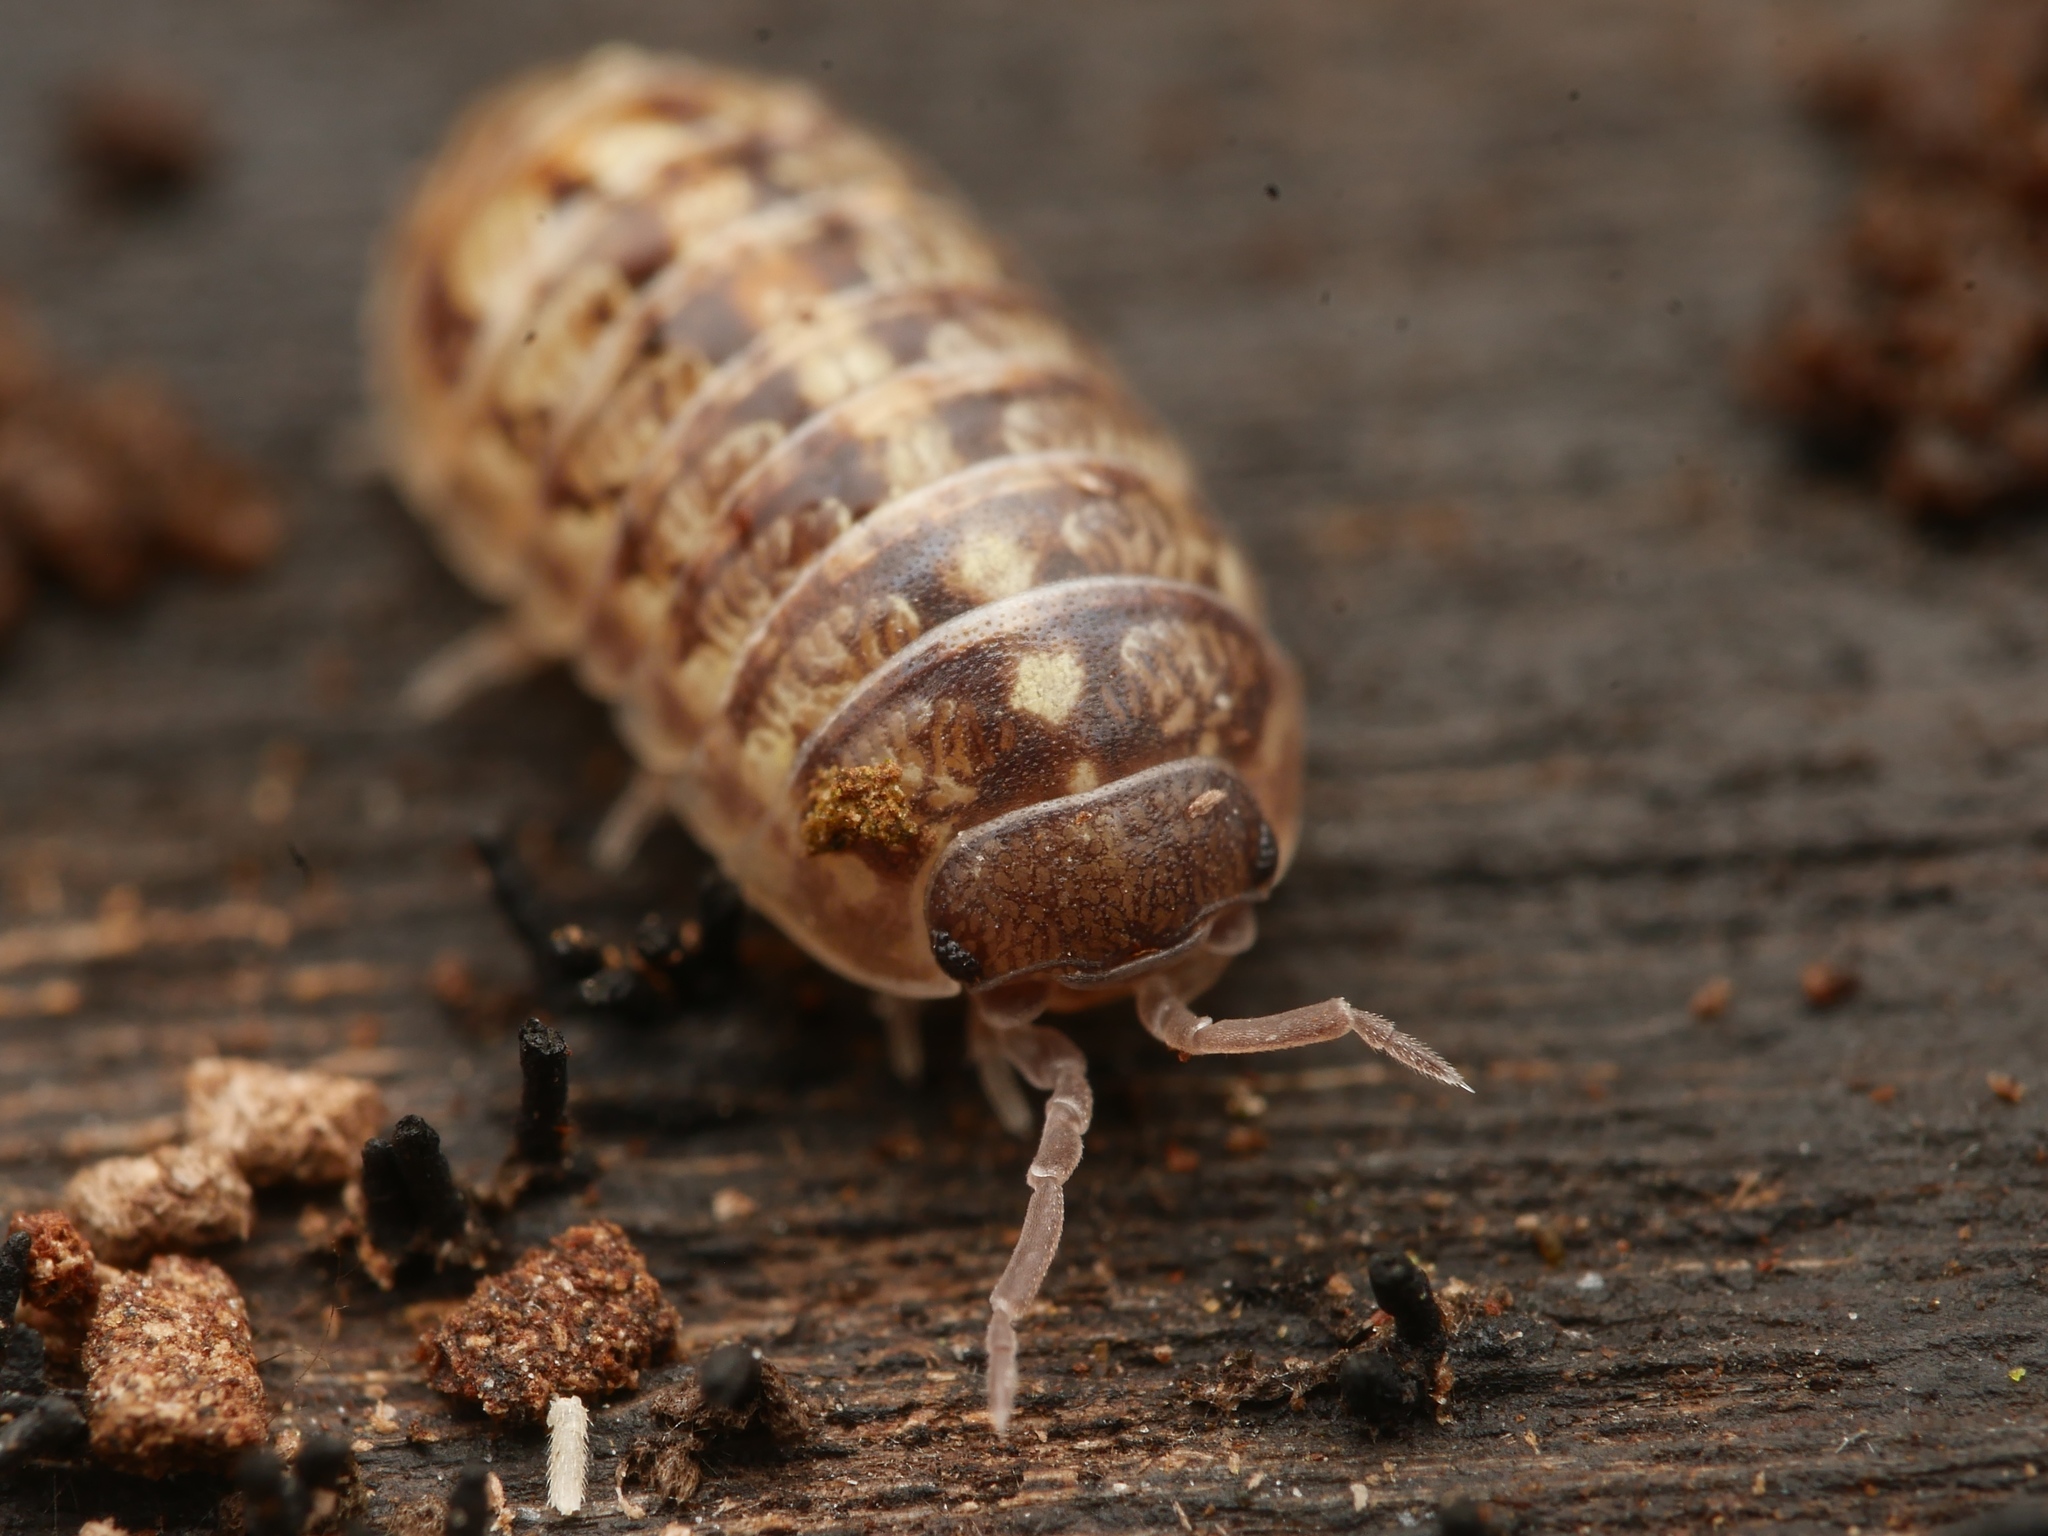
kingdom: Animalia
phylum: Arthropoda
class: Malacostraca
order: Isopoda
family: Armadillidiidae
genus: Armadillidium
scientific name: Armadillidium vulgare
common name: Common pill woodlouse
